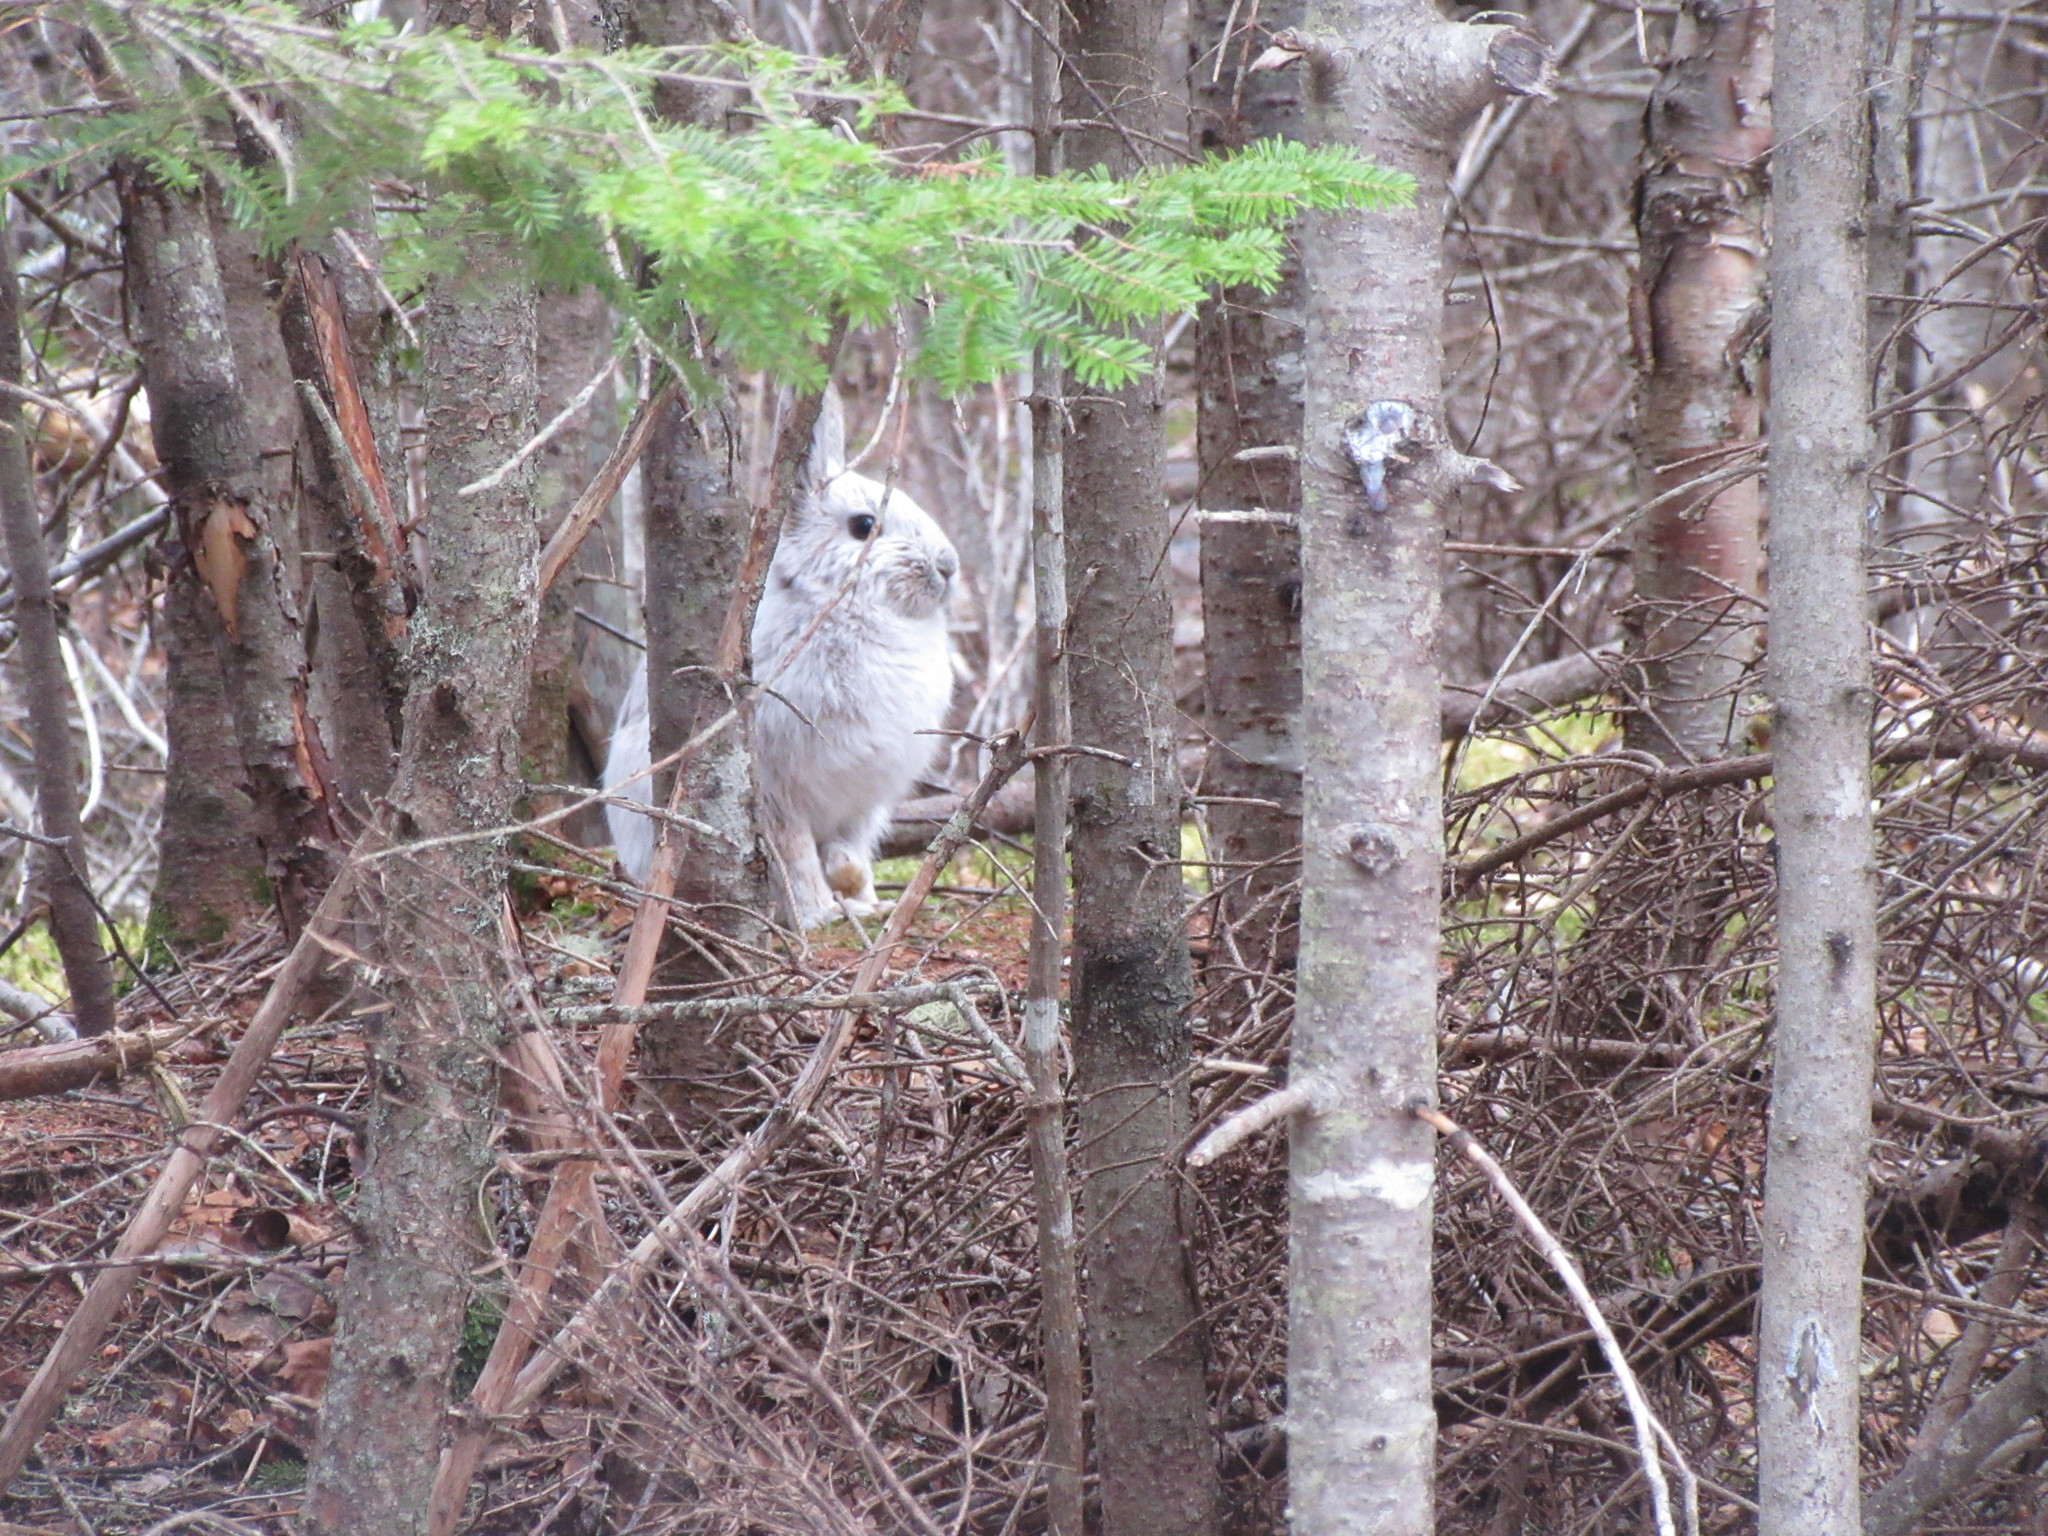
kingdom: Animalia
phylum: Chordata
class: Mammalia
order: Lagomorpha
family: Leporidae
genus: Lepus
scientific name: Lepus americanus
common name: Snowshoe hare
